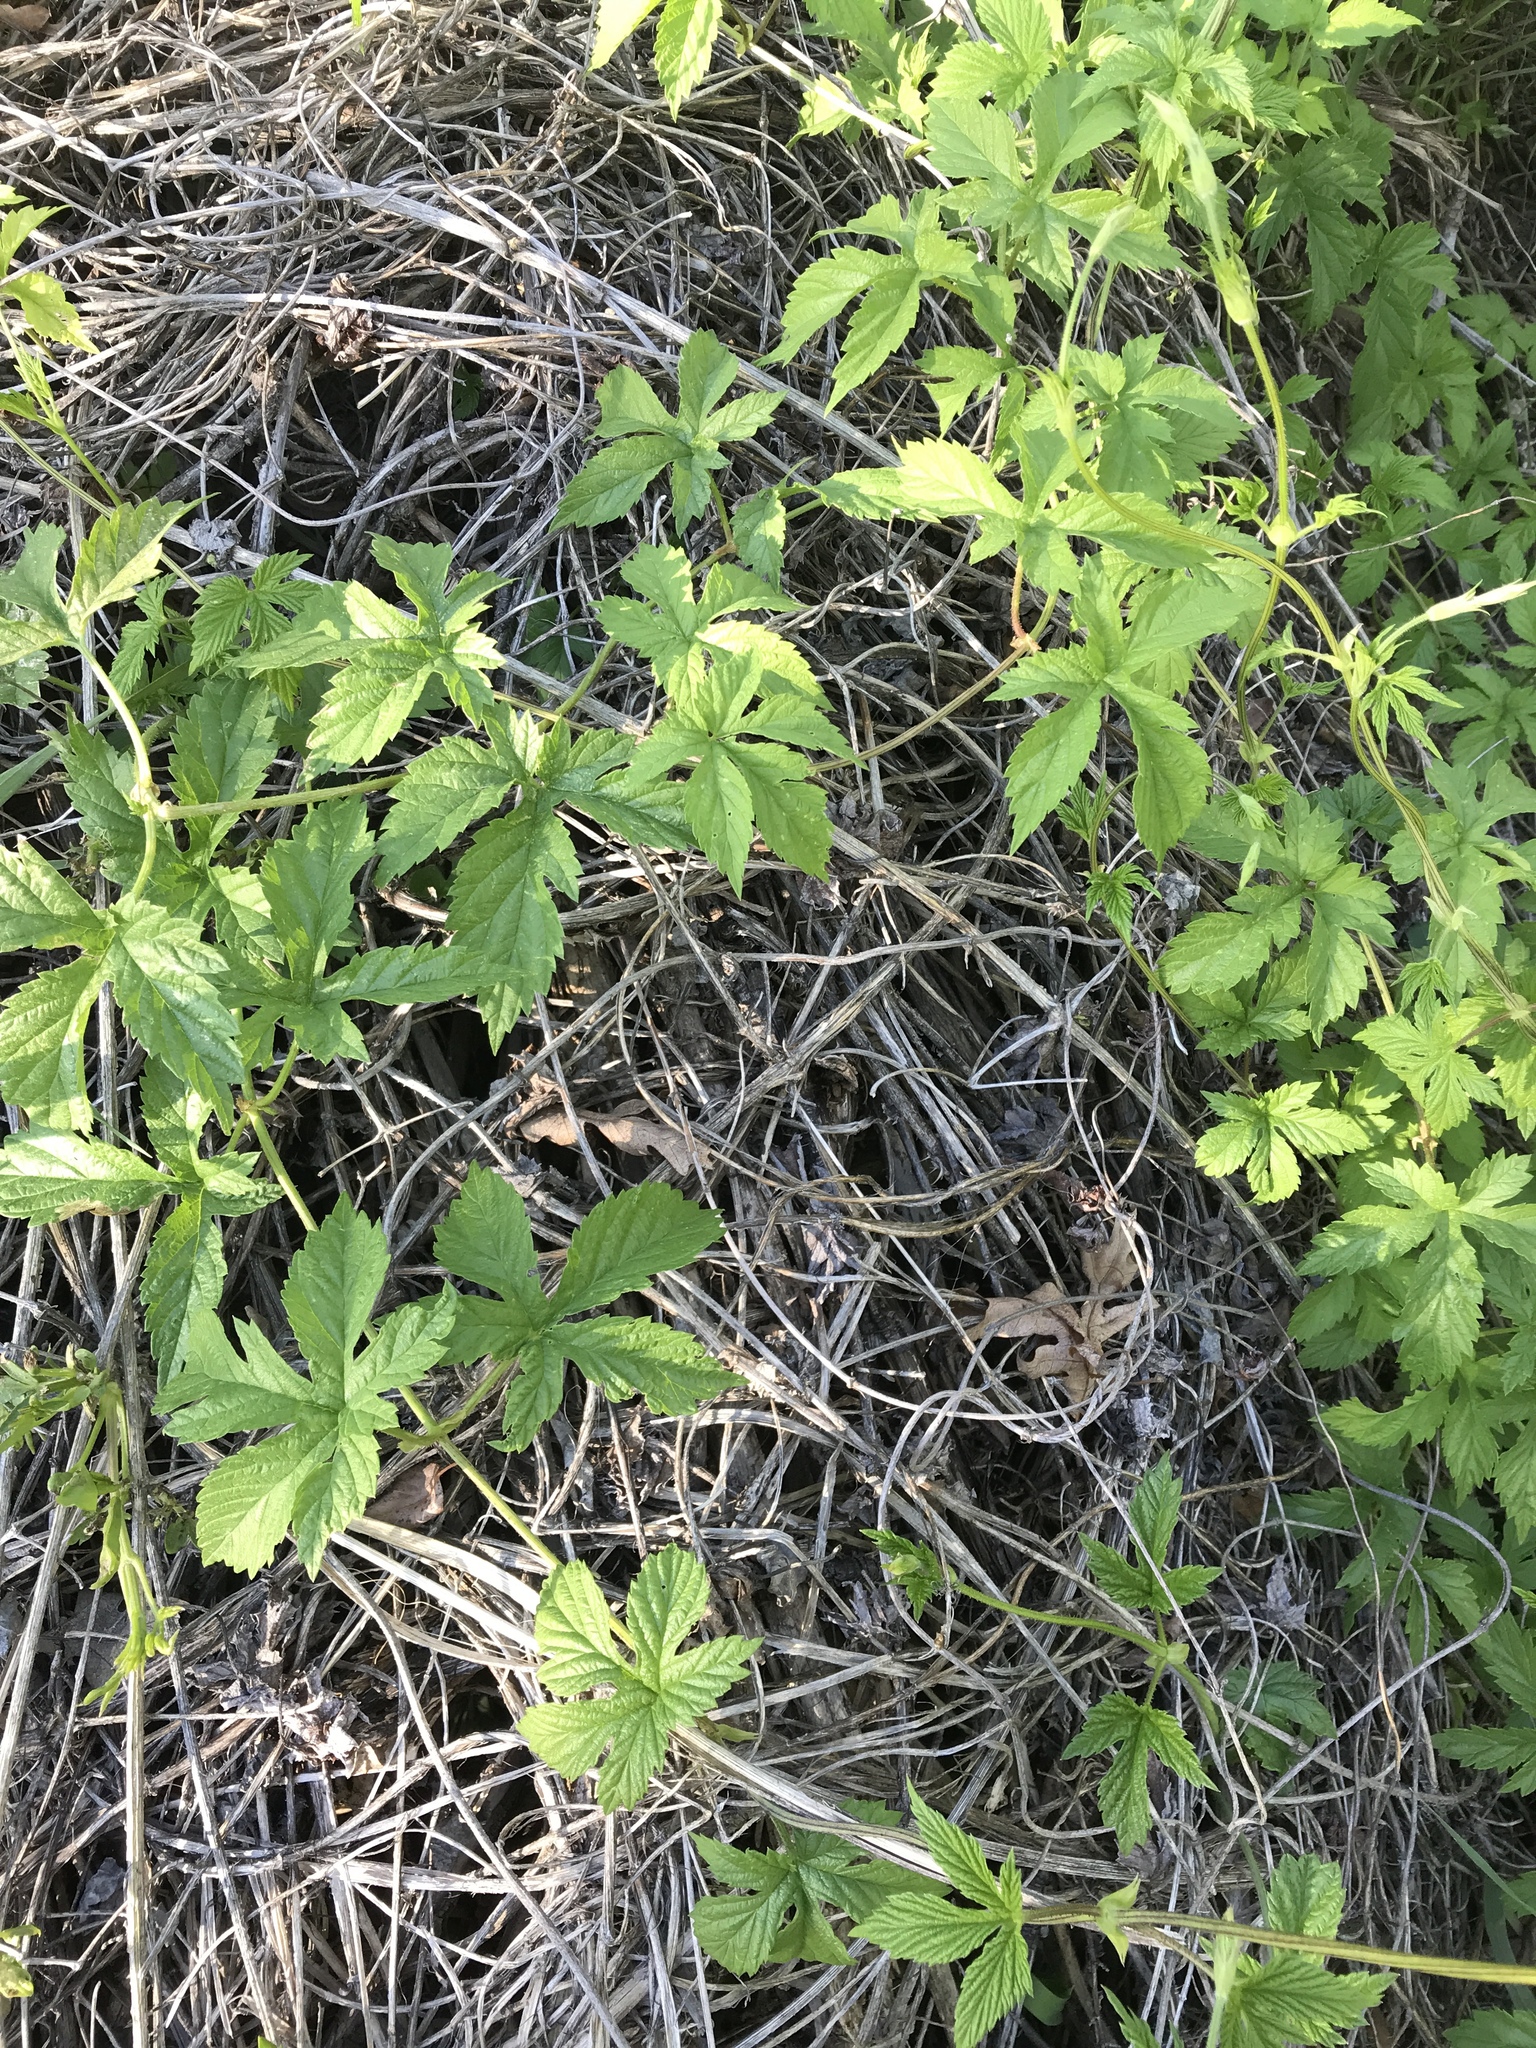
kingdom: Plantae
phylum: Tracheophyta
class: Magnoliopsida
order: Rosales
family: Cannabaceae
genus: Humulus
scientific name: Humulus neomexicanus
